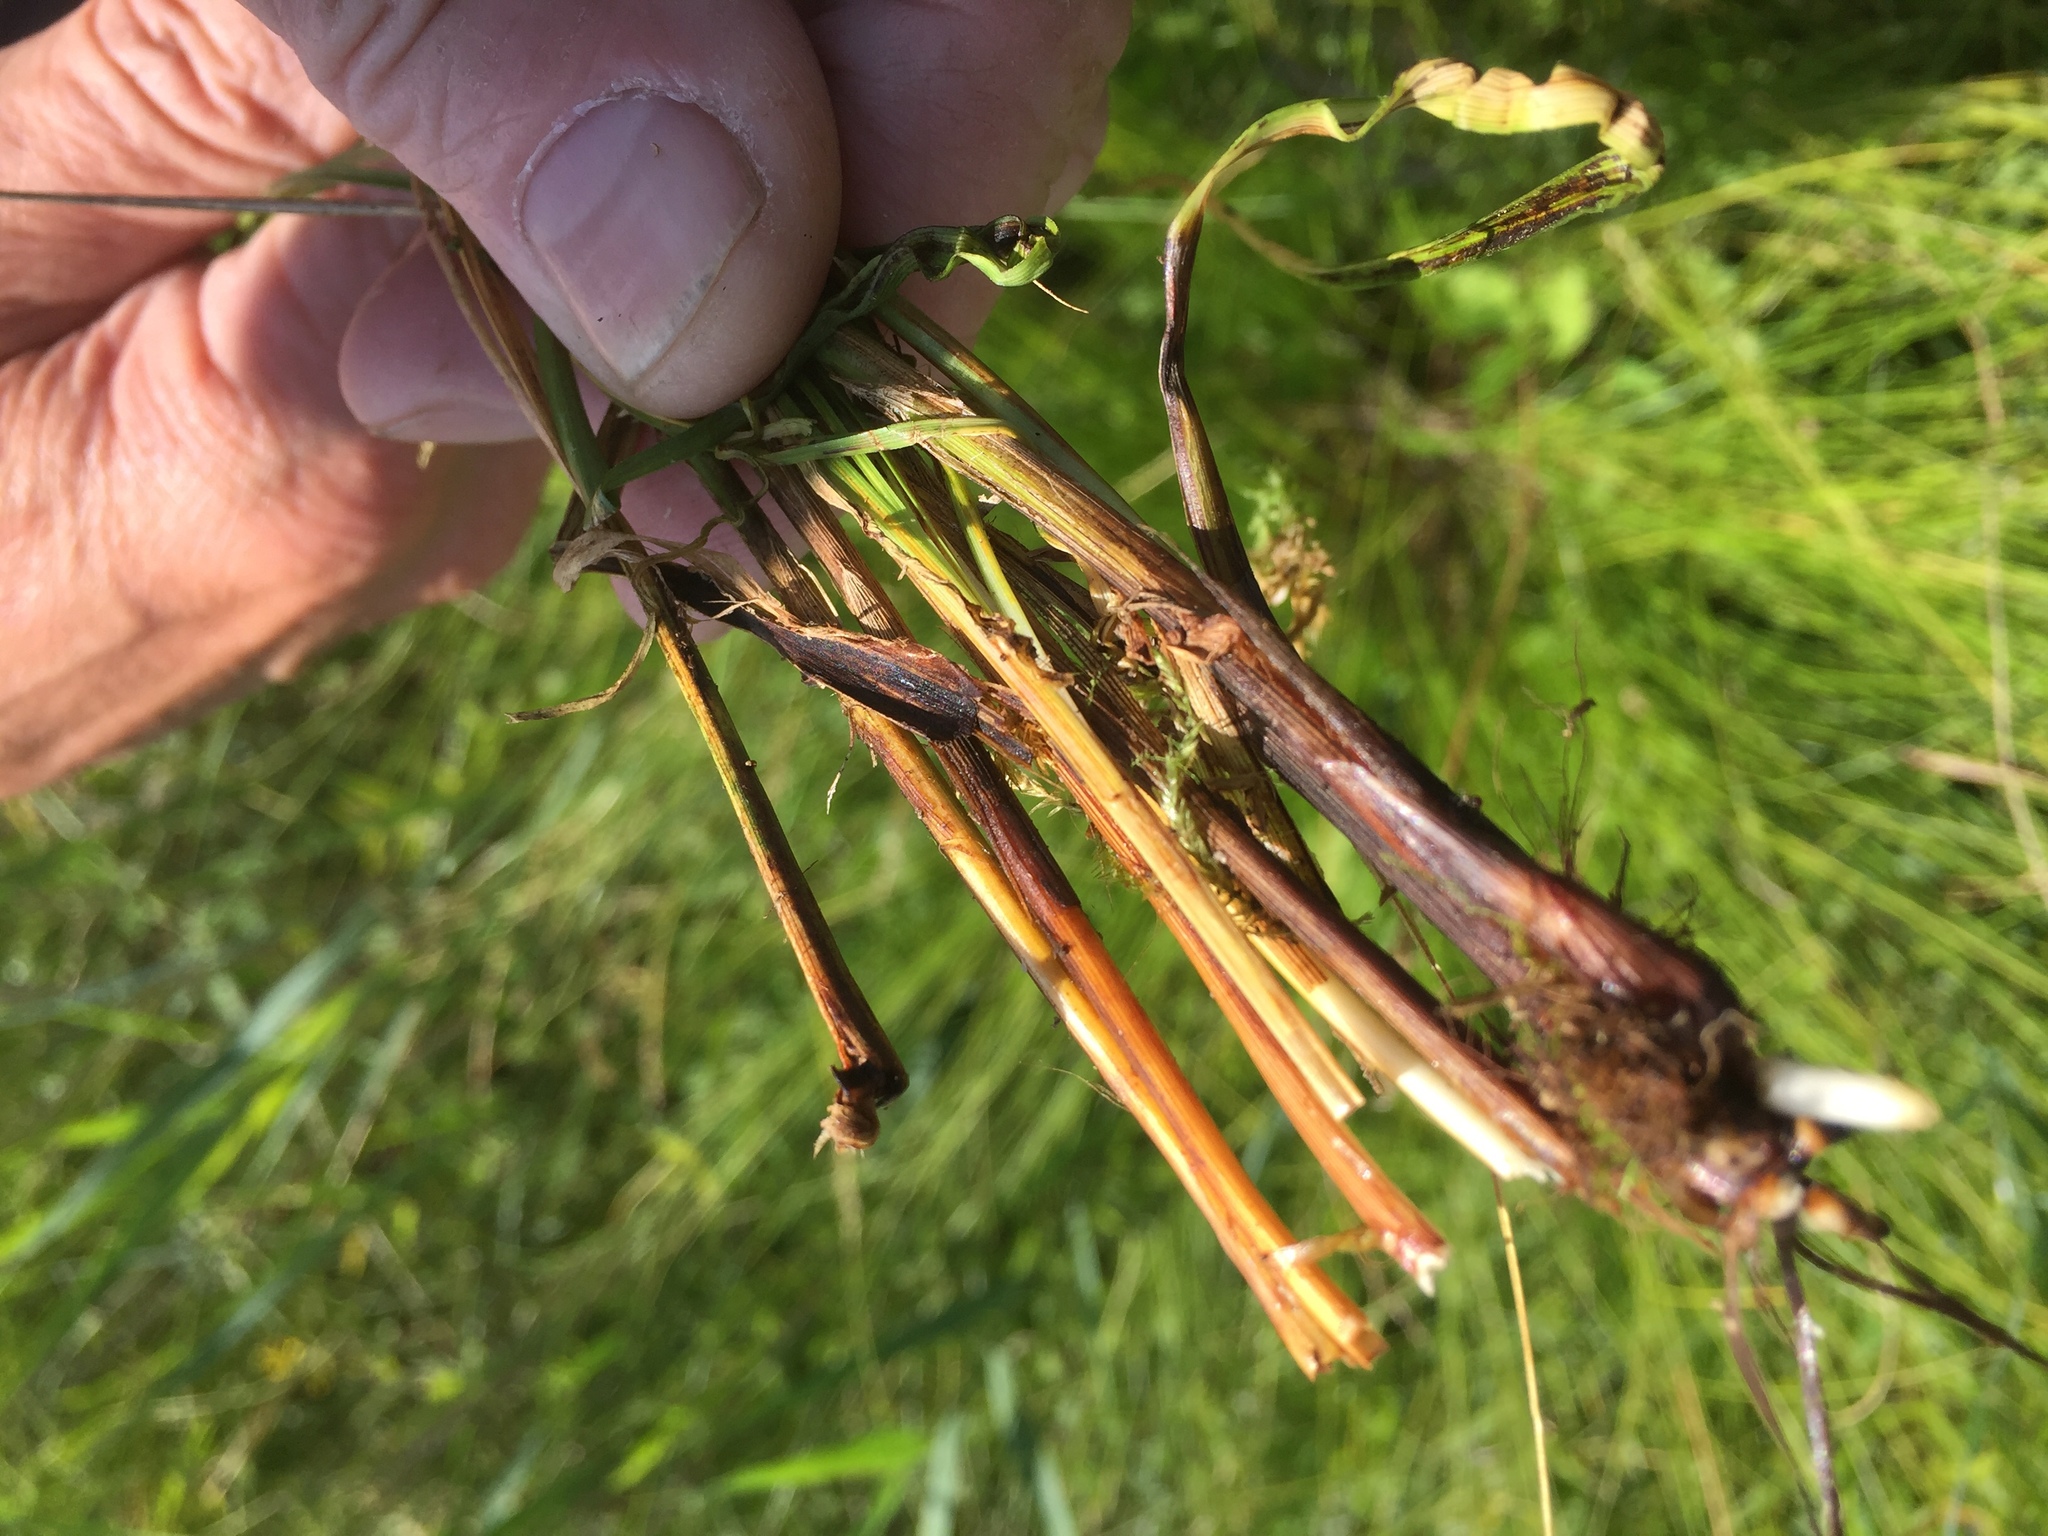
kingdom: Plantae
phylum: Tracheophyta
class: Liliopsida
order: Poales
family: Cyperaceae
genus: Carex
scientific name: Carex appropinquata
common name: Fibrous tussock-sedge
